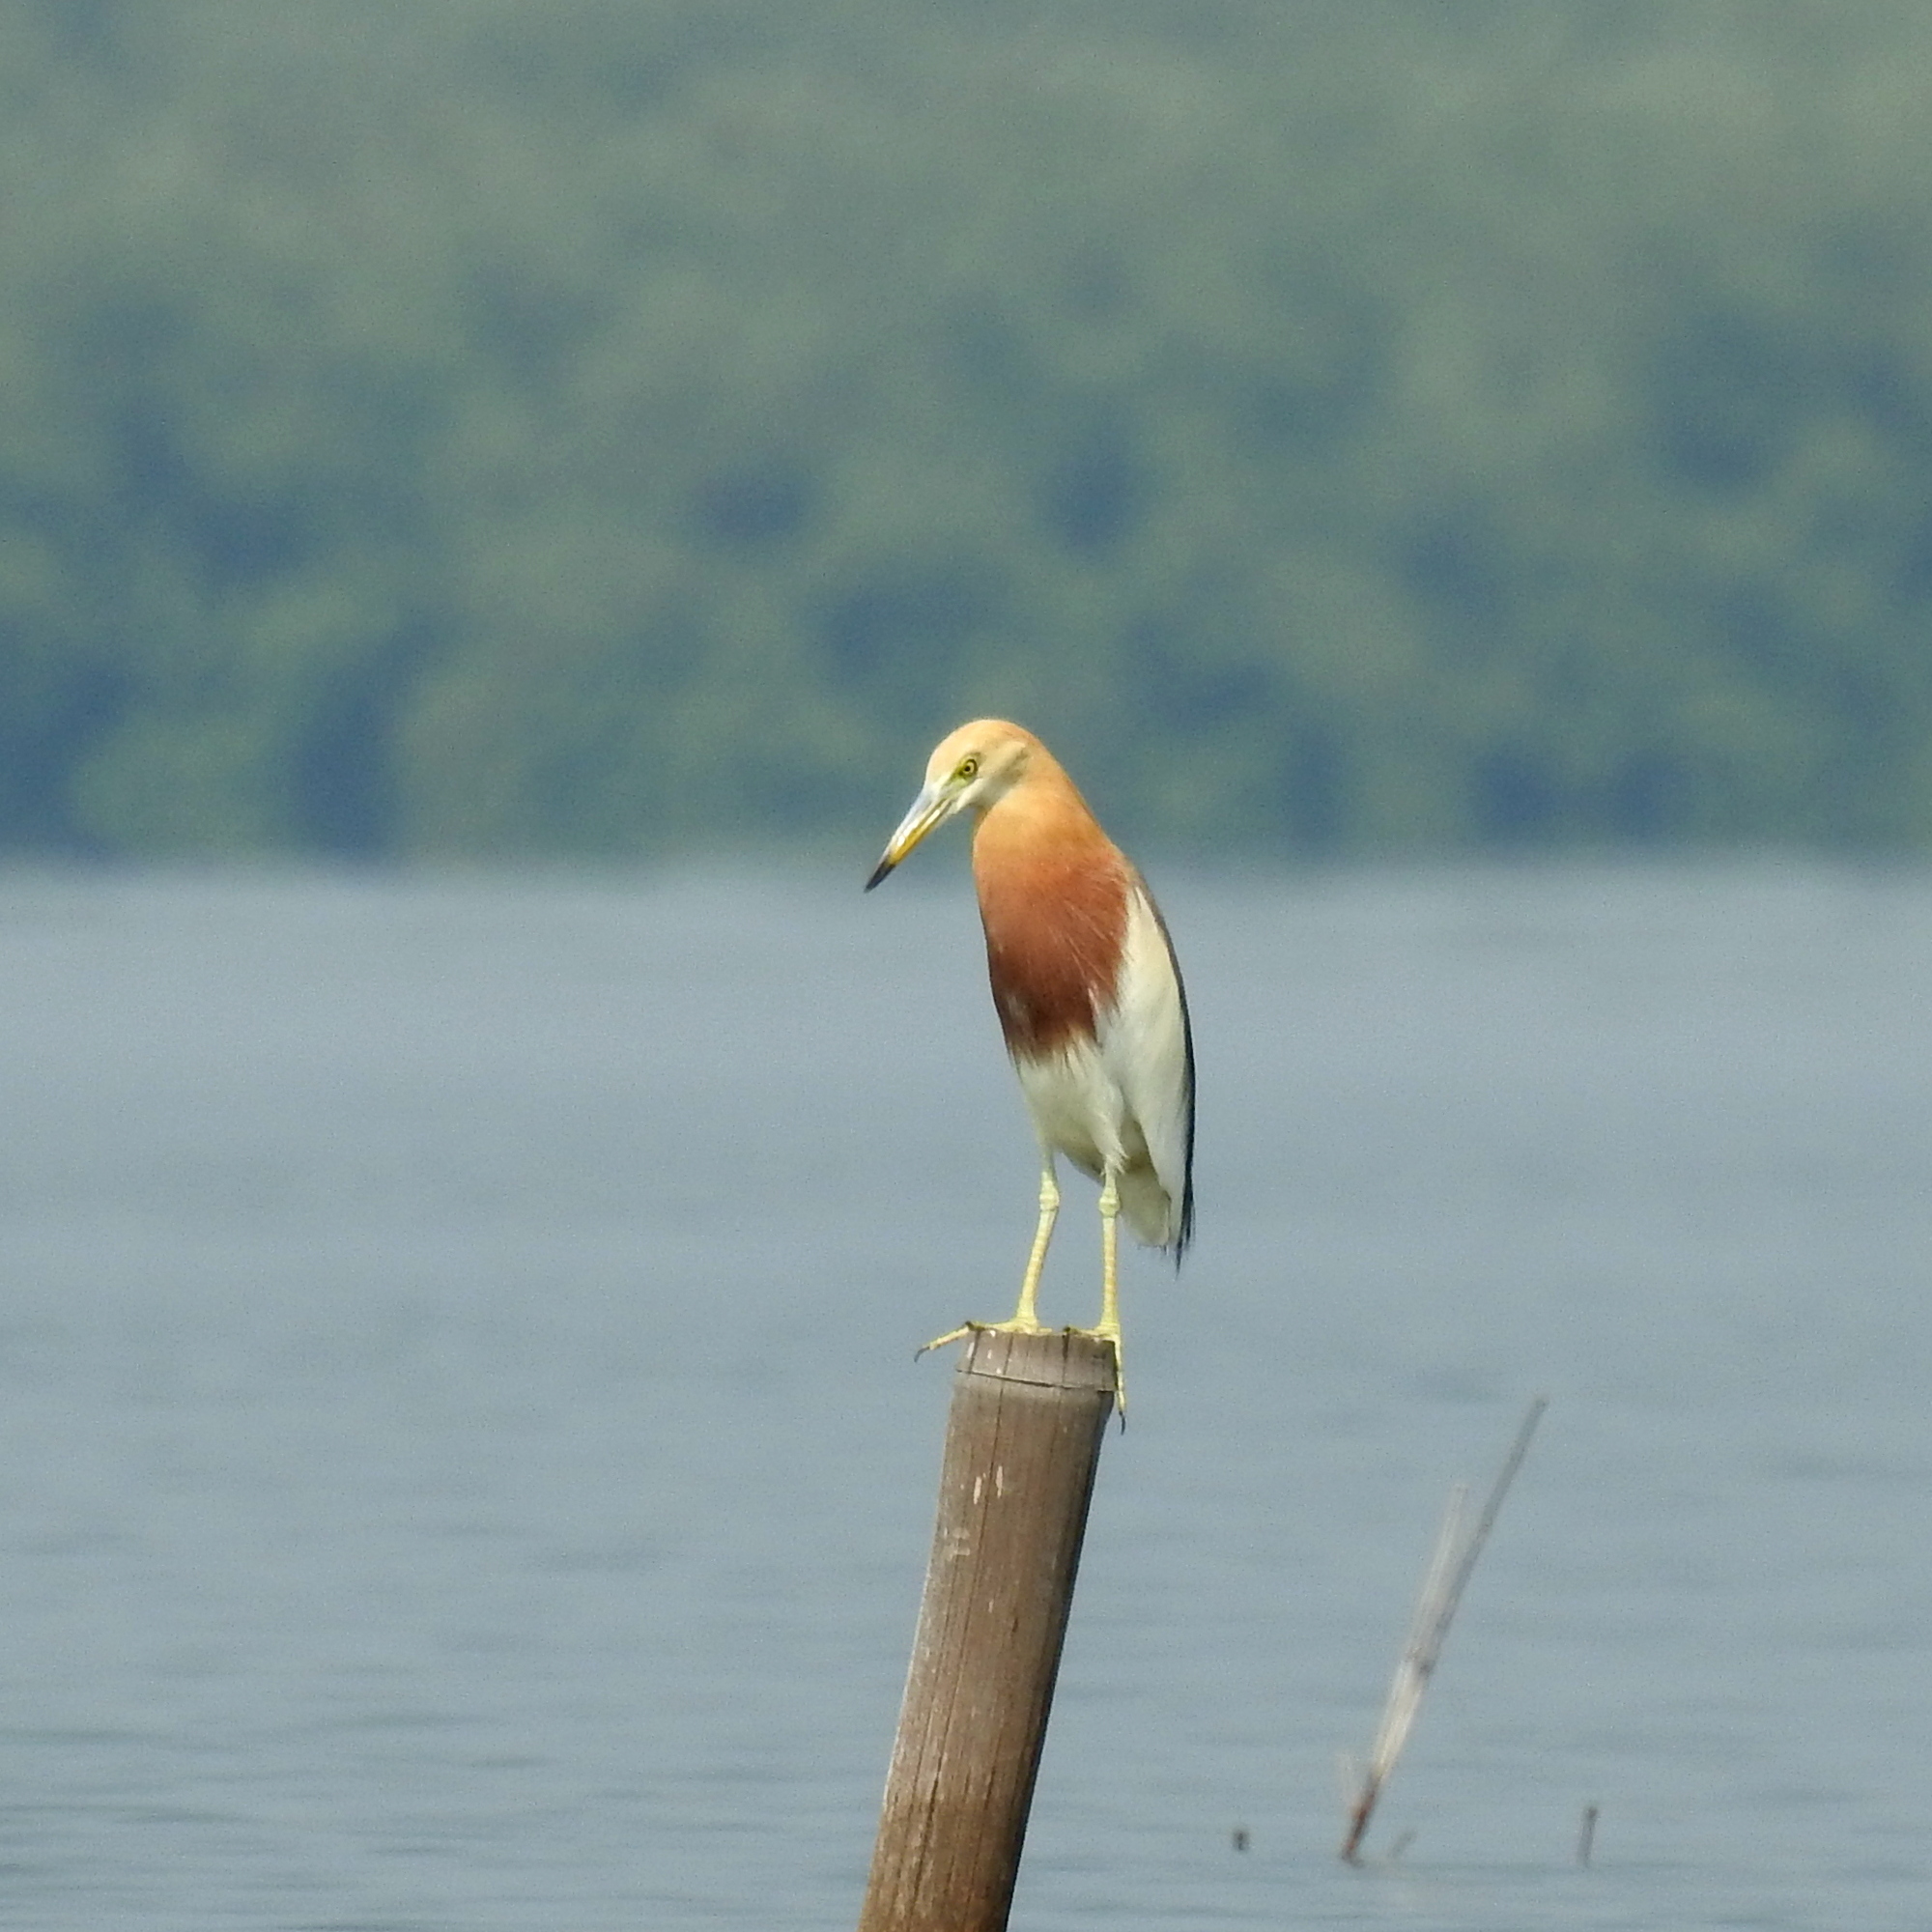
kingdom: Animalia
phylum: Chordata
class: Aves
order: Pelecaniformes
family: Ardeidae
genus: Ardeola
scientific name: Ardeola speciosa
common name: Javan pond heron
